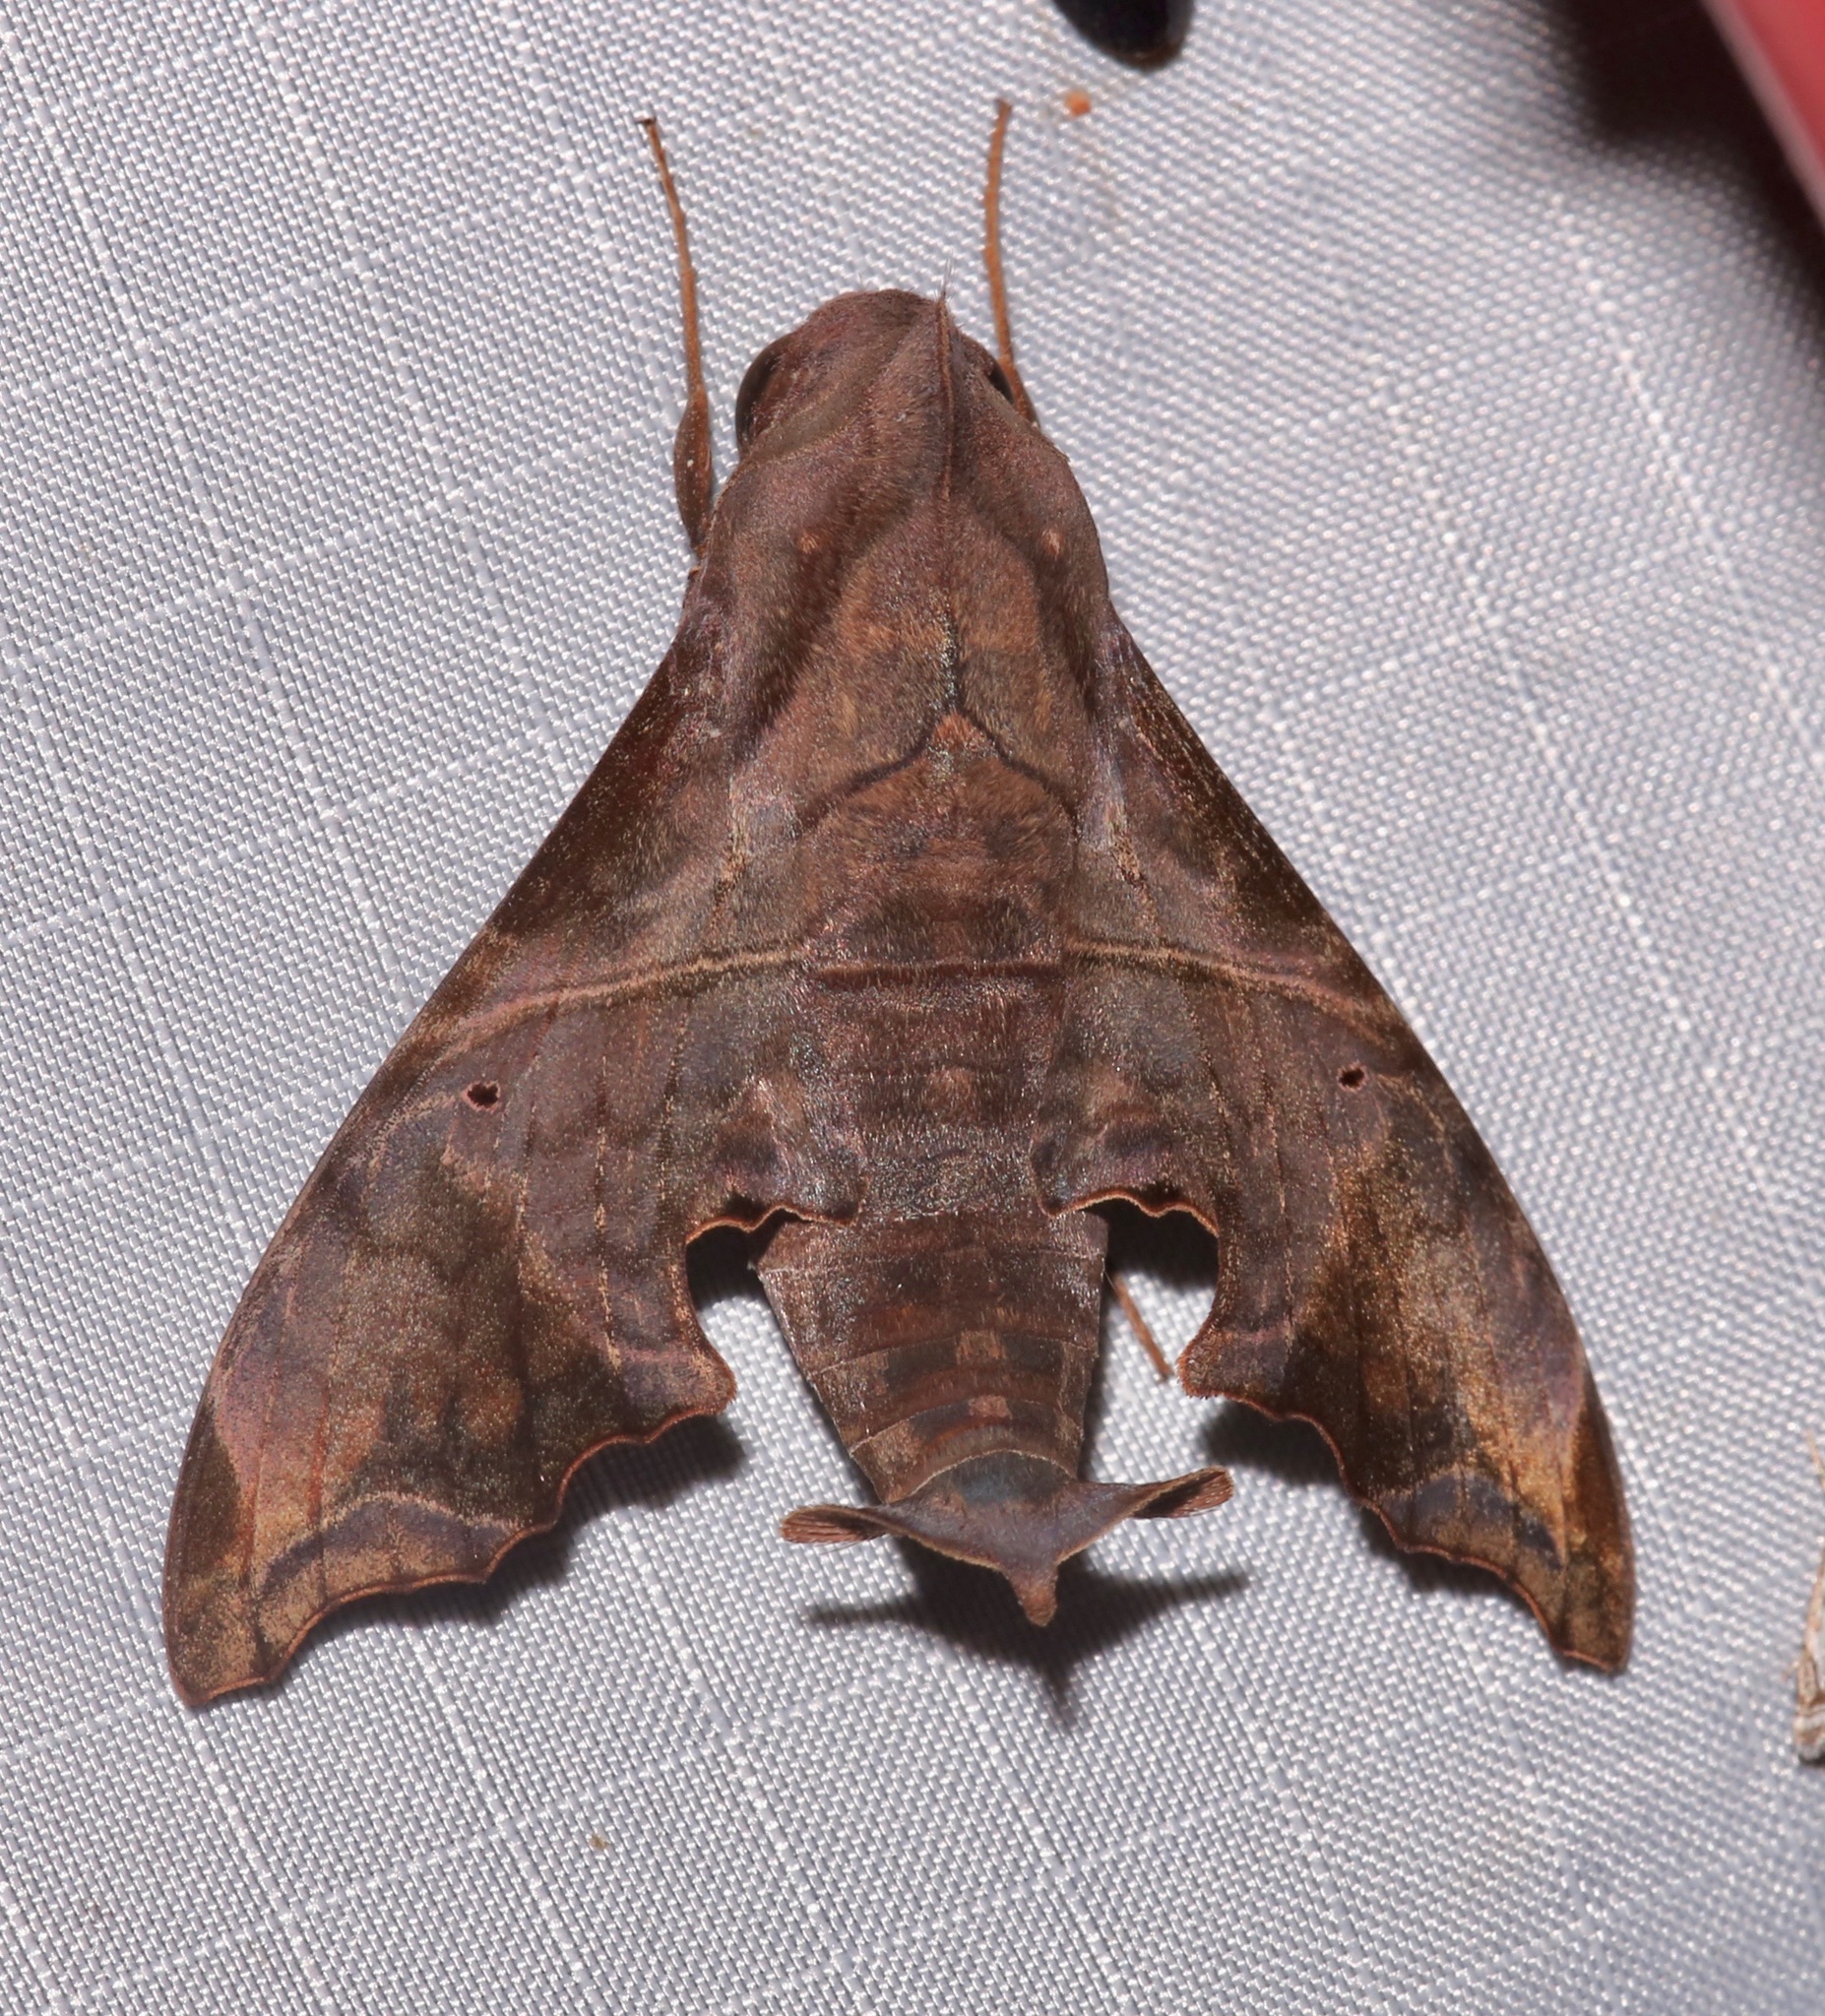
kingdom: Animalia
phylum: Arthropoda
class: Insecta
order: Lepidoptera
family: Sphingidae
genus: Enyo
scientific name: Enyo lugubris
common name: Mournful sphinx
